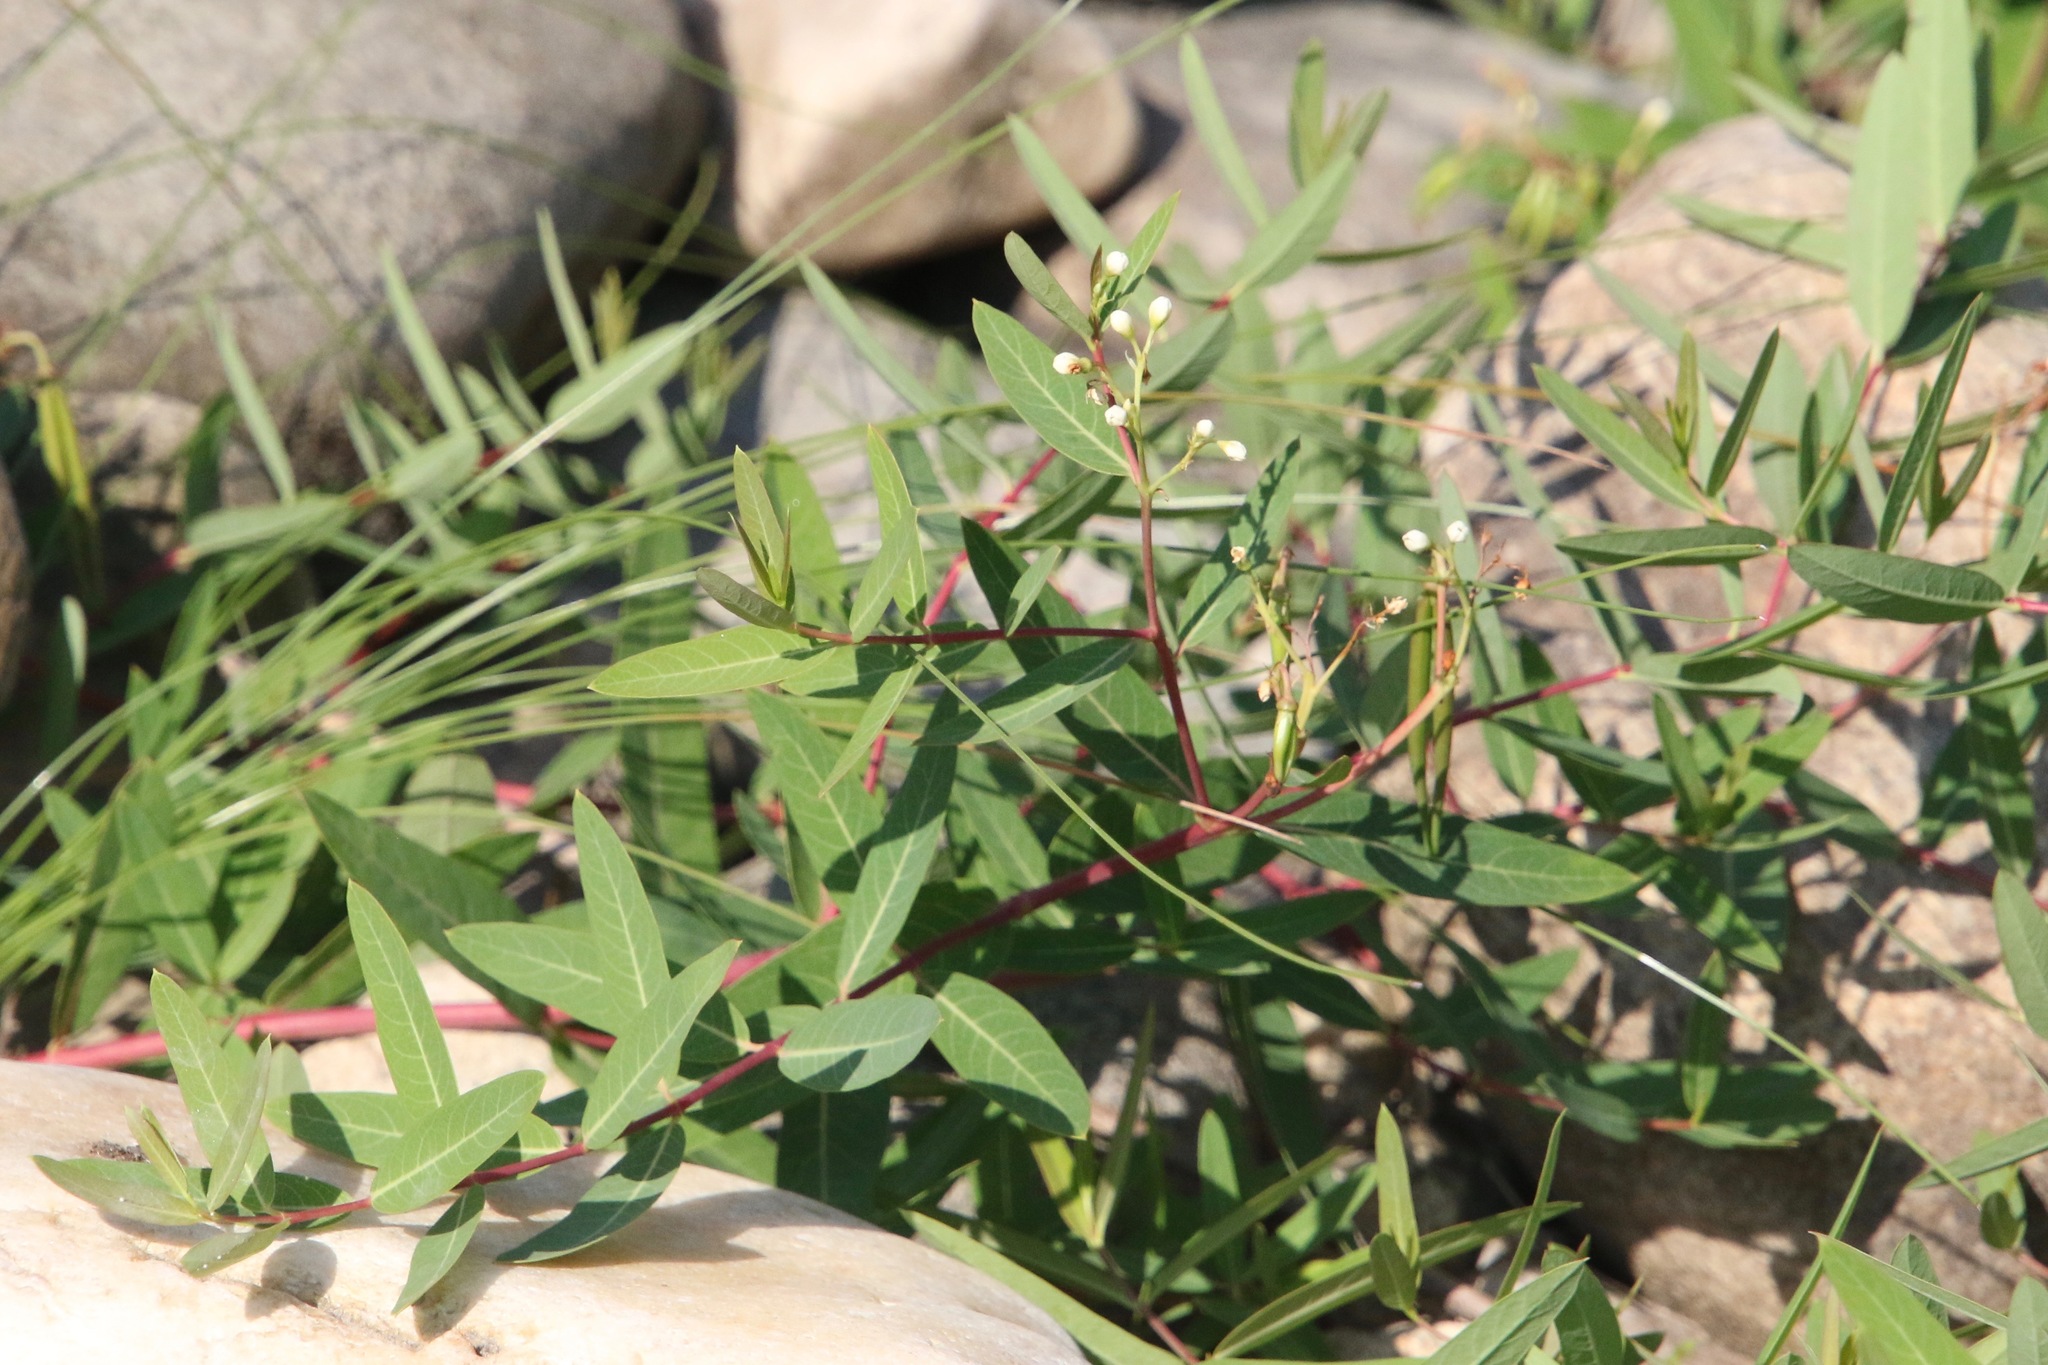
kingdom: Plantae
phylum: Tracheophyta
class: Magnoliopsida
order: Gentianales
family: Apocynaceae
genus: Apocynum
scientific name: Apocynum cannabinum
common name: Hemp dogbane
